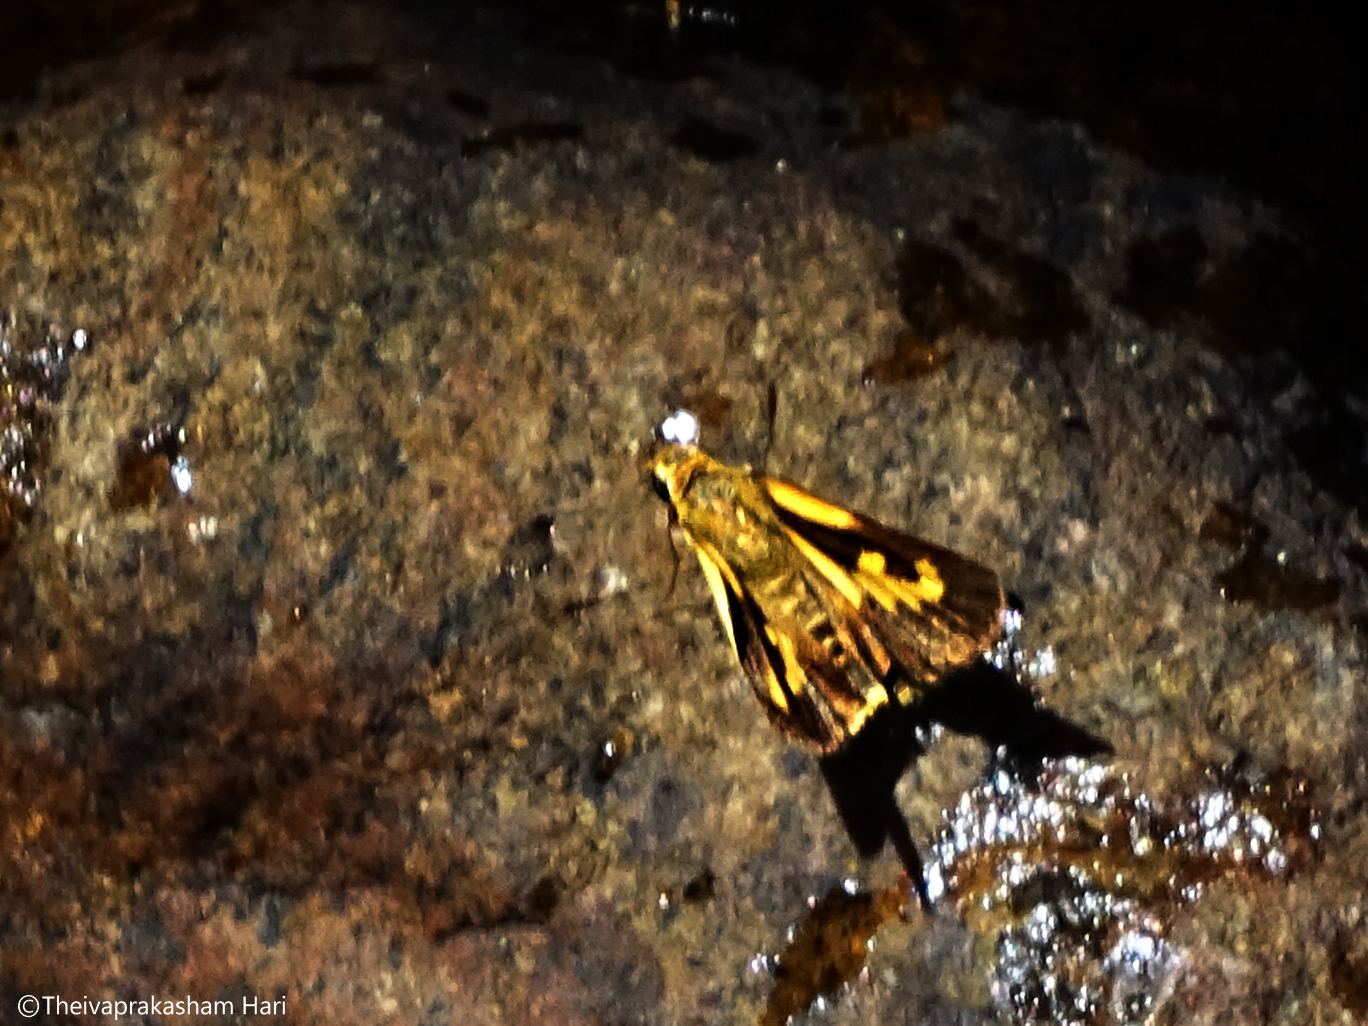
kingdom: Animalia
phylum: Arthropoda
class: Insecta
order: Lepidoptera
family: Hesperiidae
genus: Cupitha
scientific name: Cupitha purreea
